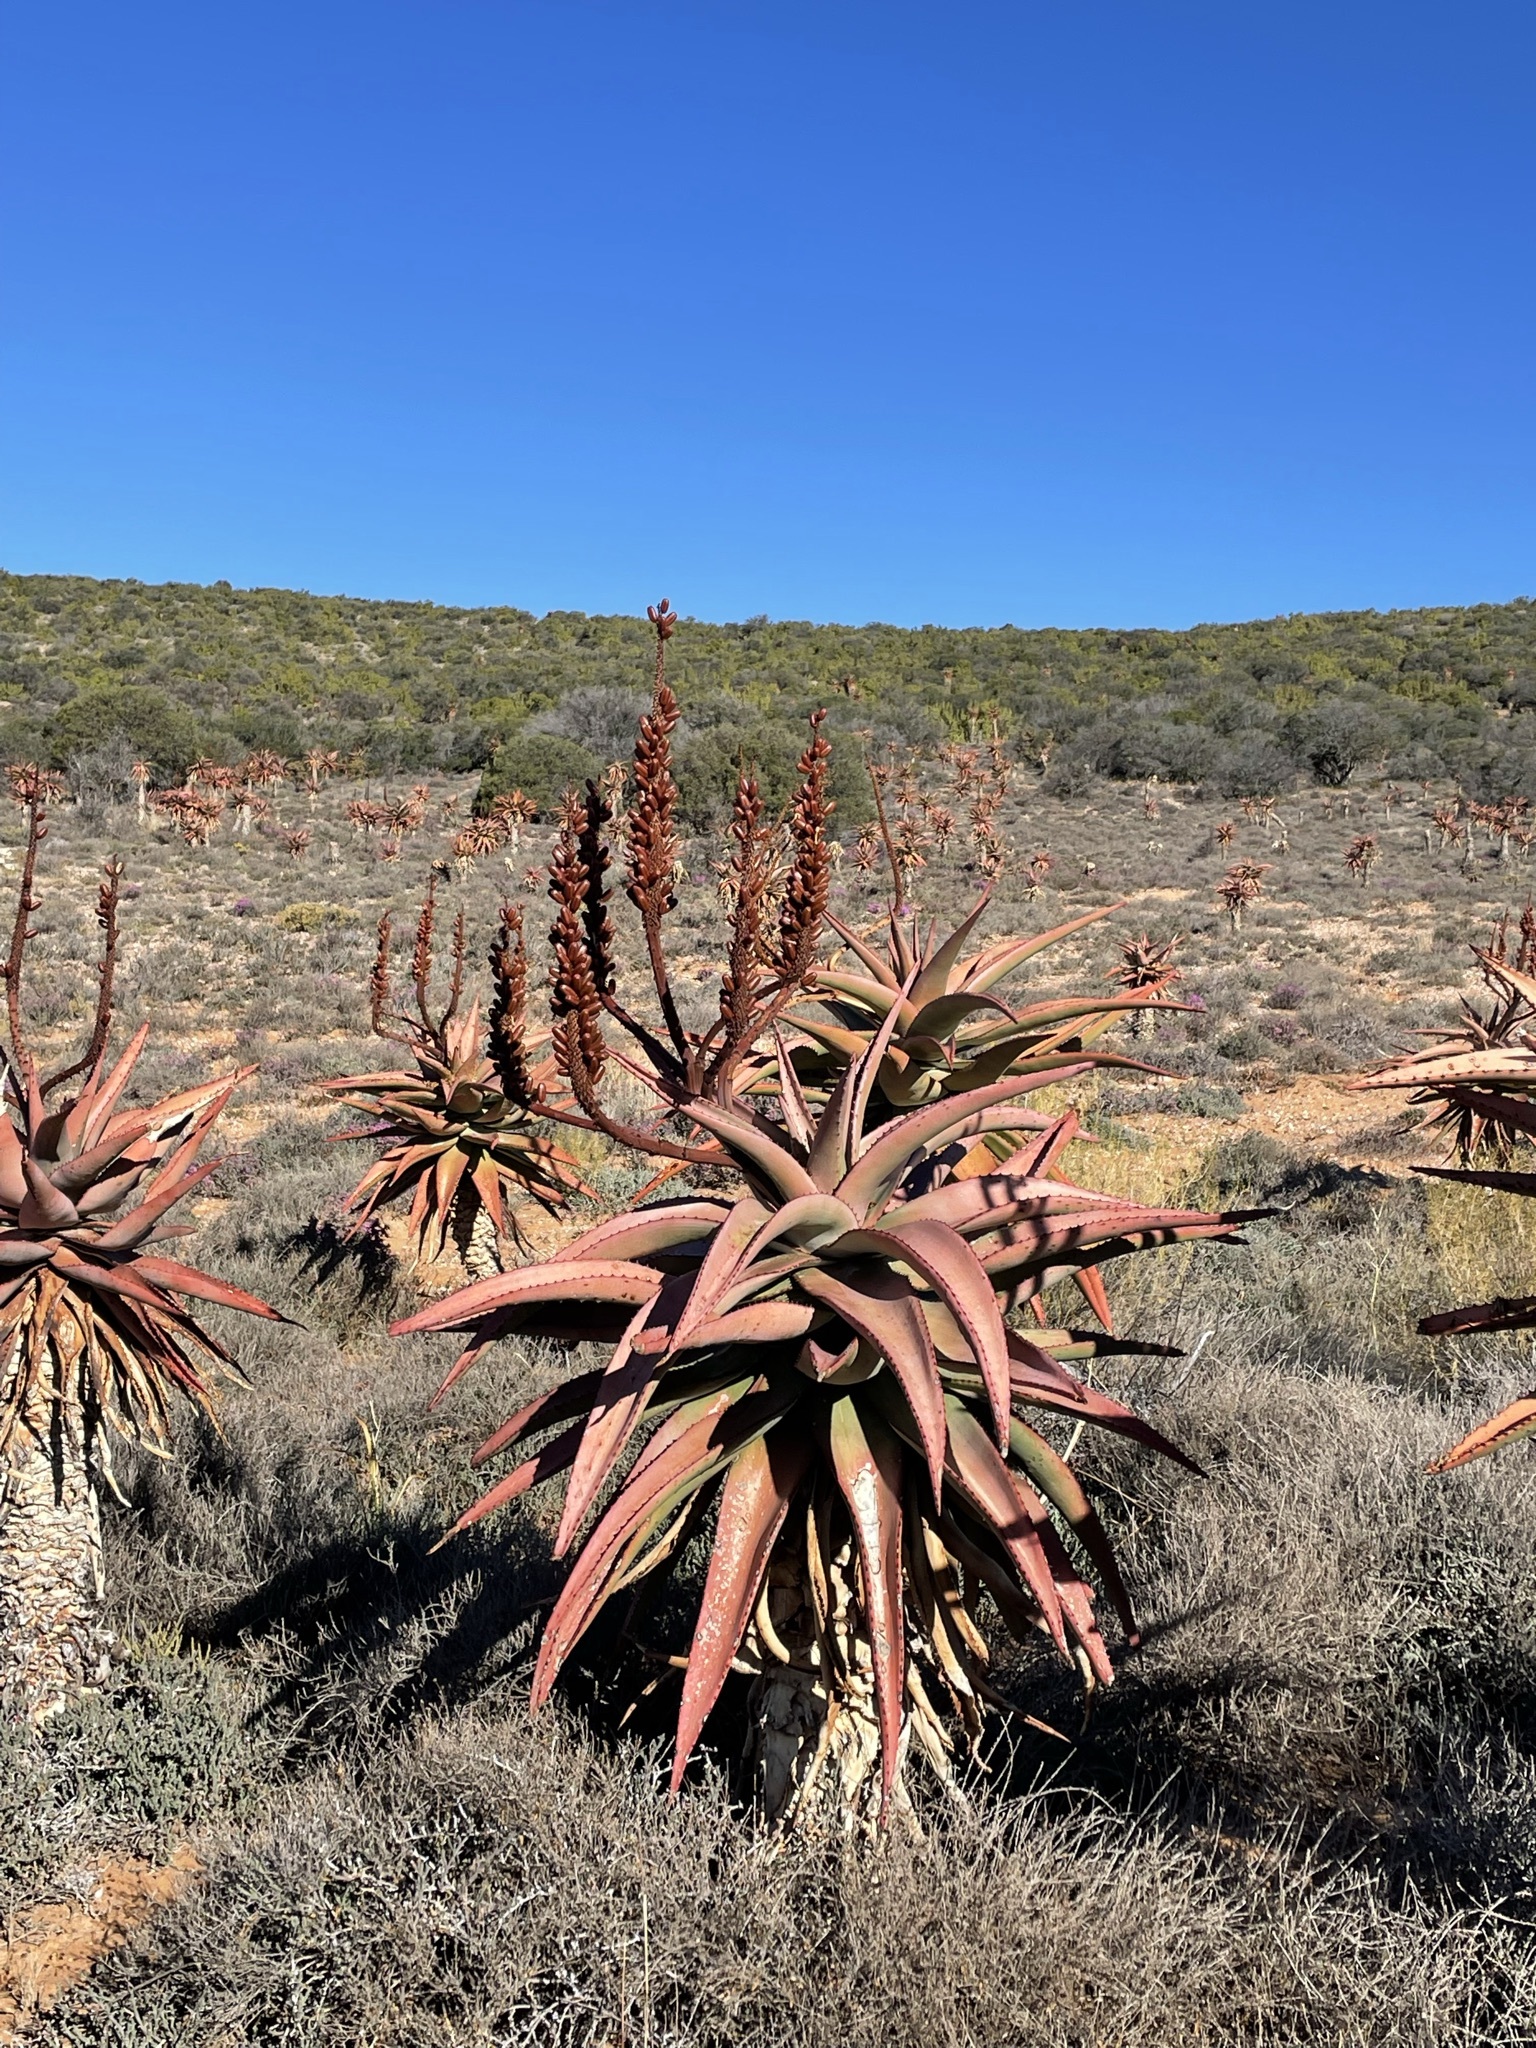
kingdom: Plantae
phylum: Tracheophyta
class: Liliopsida
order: Asparagales
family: Asphodelaceae
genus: Aloe
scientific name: Aloe ferox
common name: Bitter aloe
